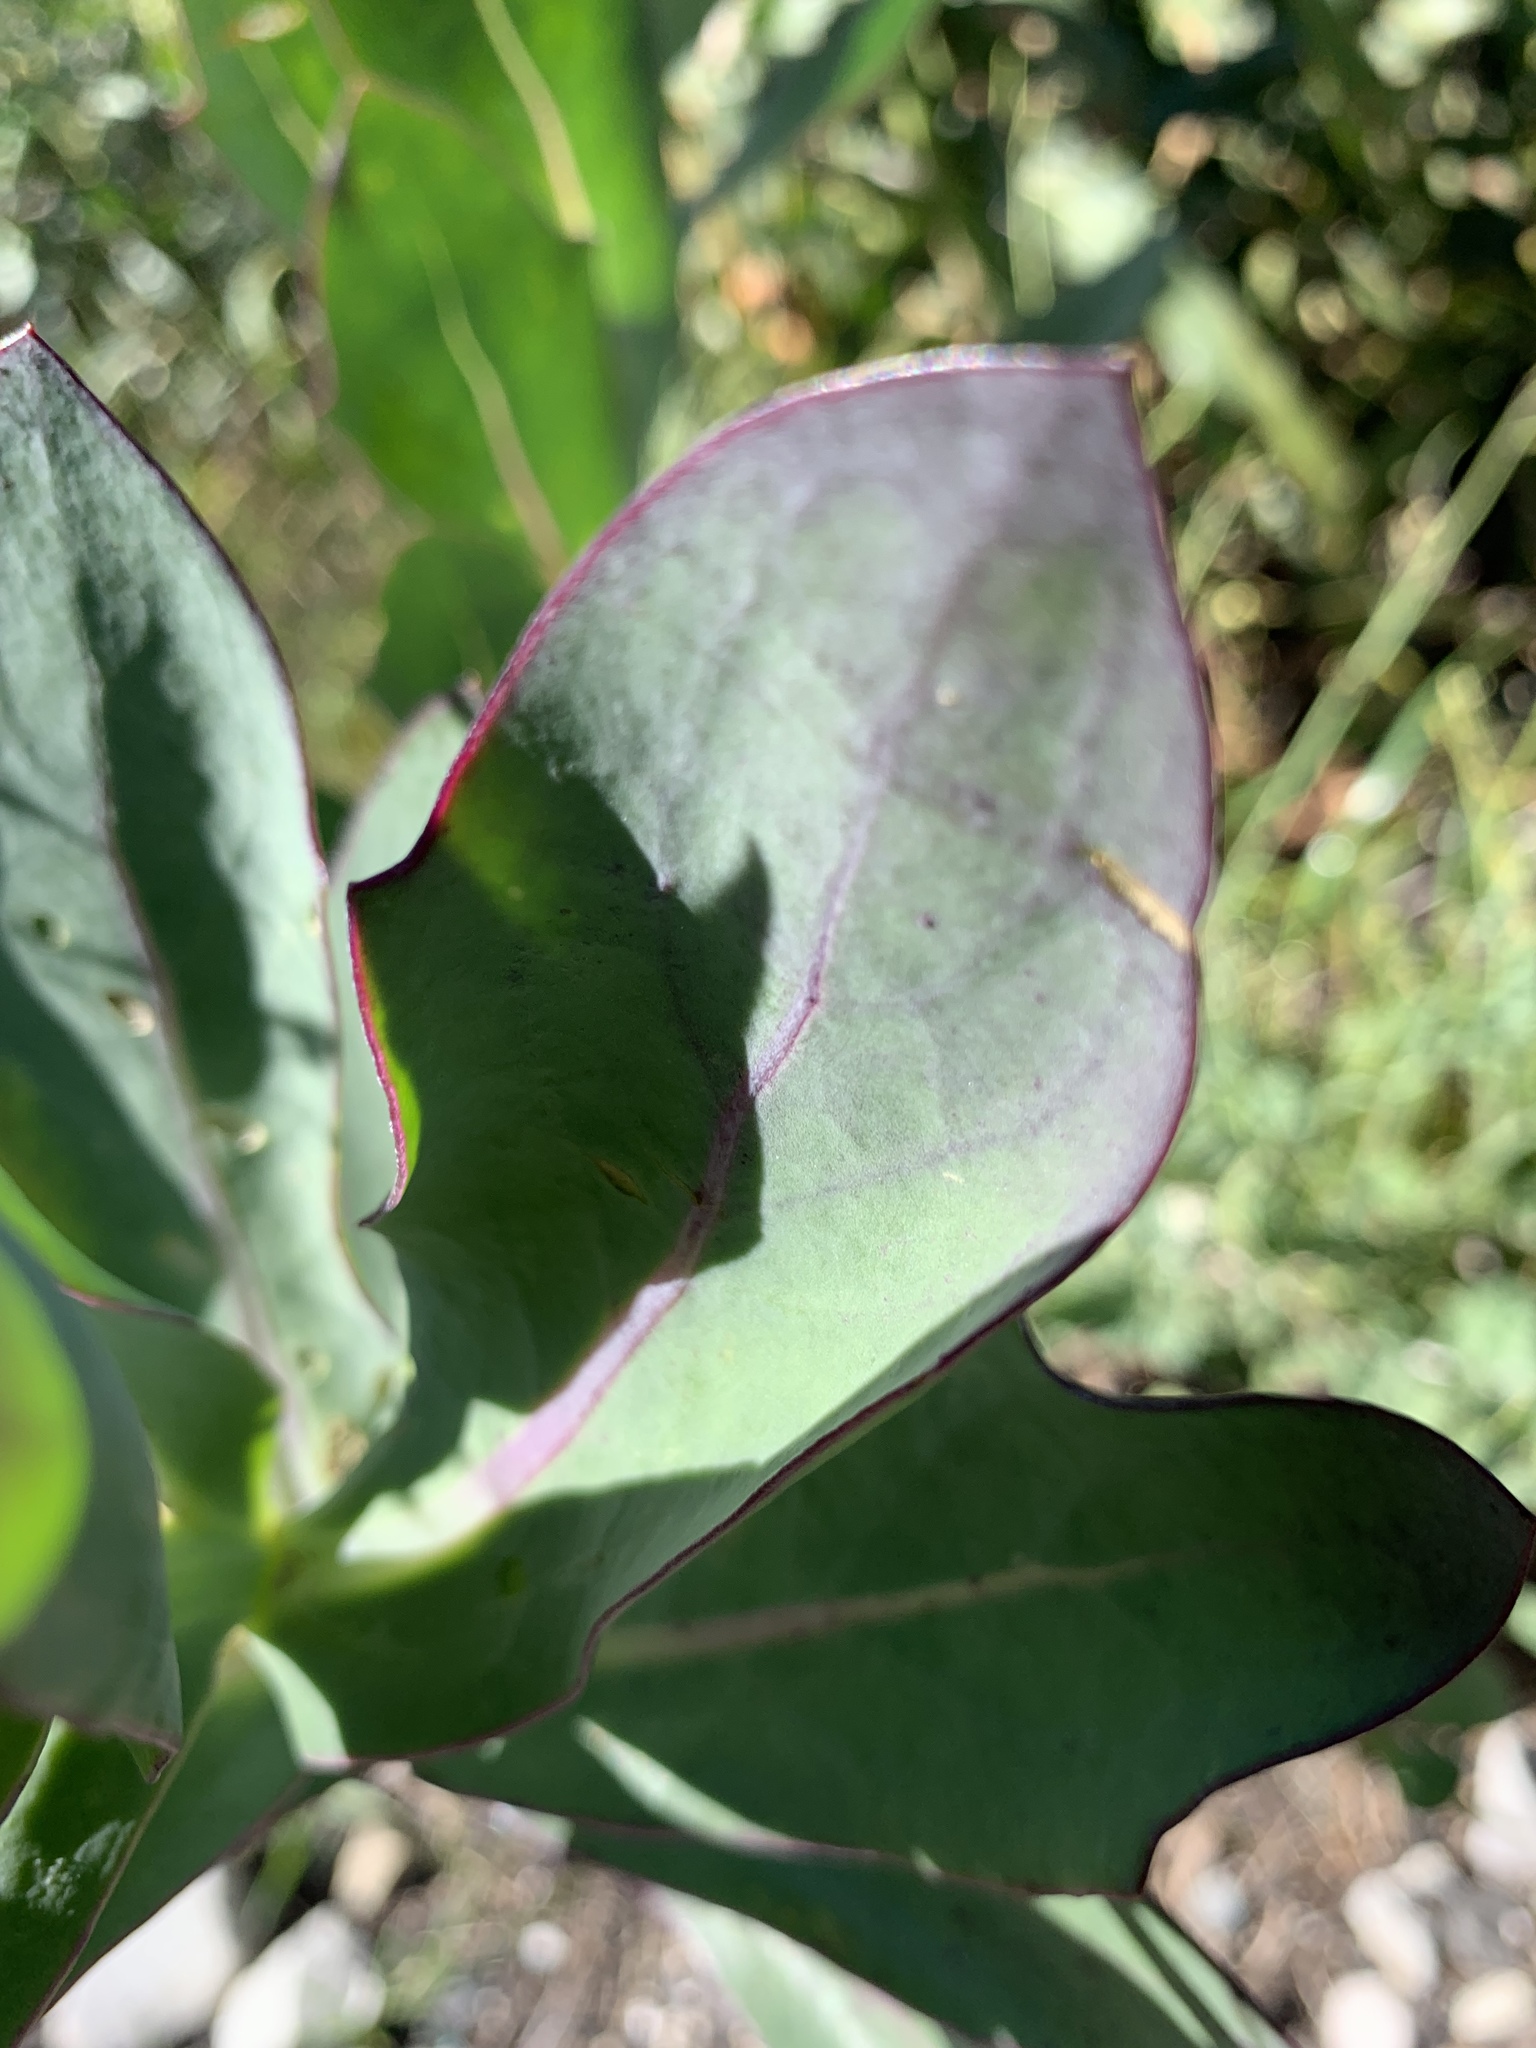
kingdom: Plantae
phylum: Tracheophyta
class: Magnoliopsida
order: Asterales
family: Asteraceae
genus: Othonna
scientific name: Othonna quinquedentata
